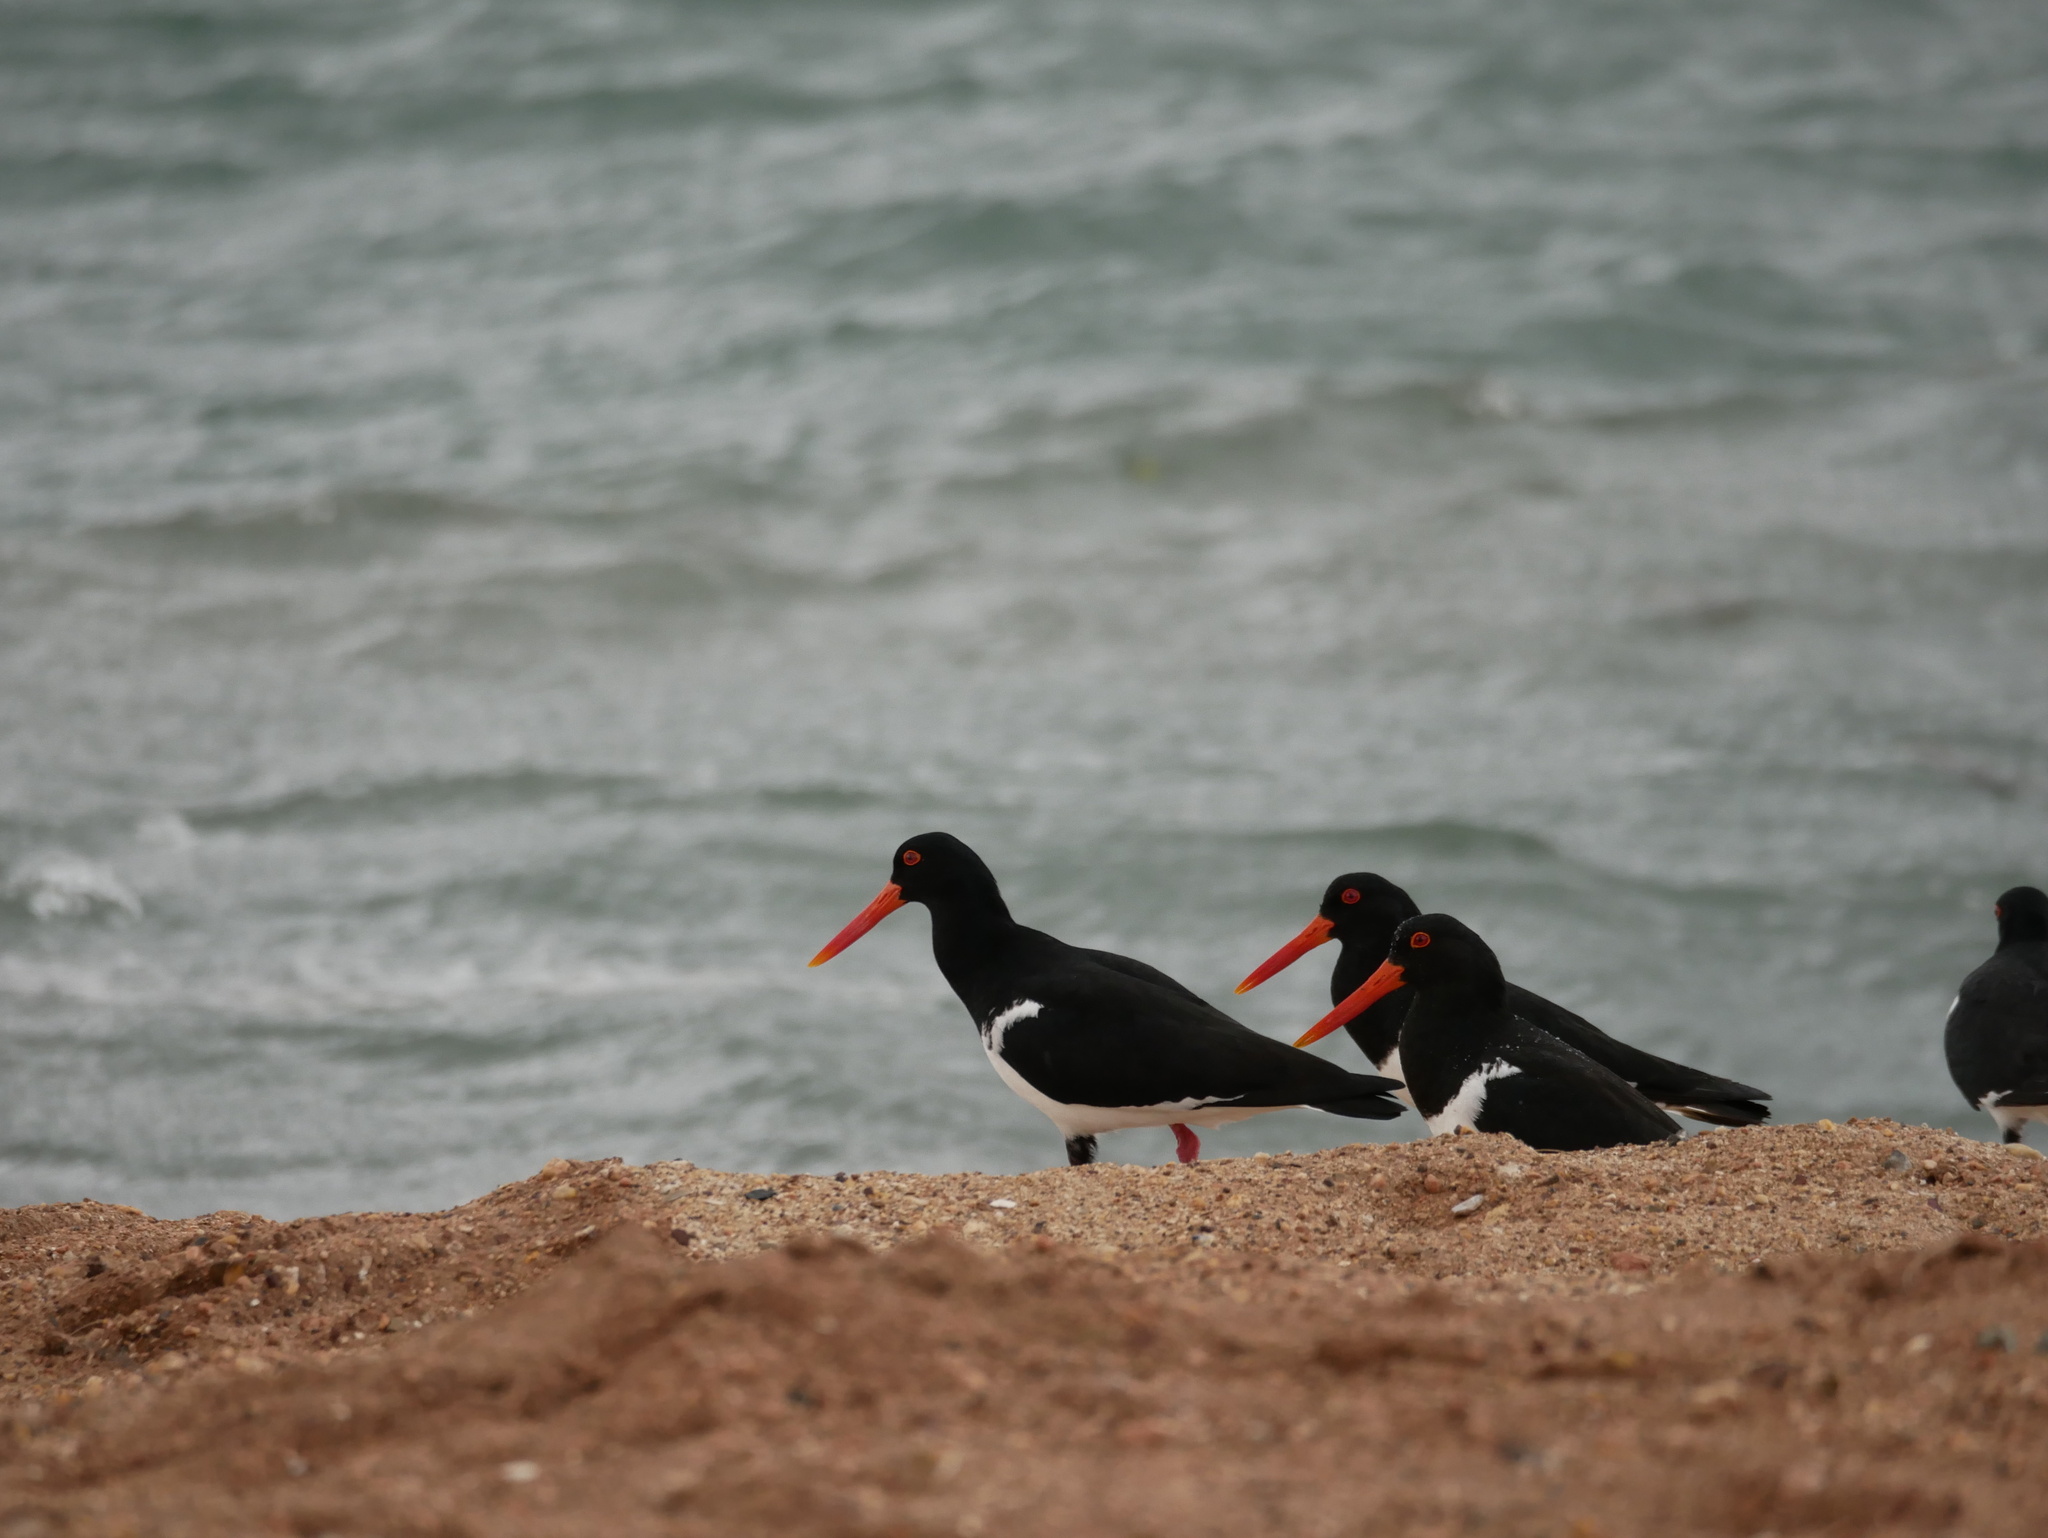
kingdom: Animalia
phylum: Chordata
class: Aves
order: Charadriiformes
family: Haematopodidae
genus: Haematopus
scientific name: Haematopus longirostris
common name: Pied oystercatcher
